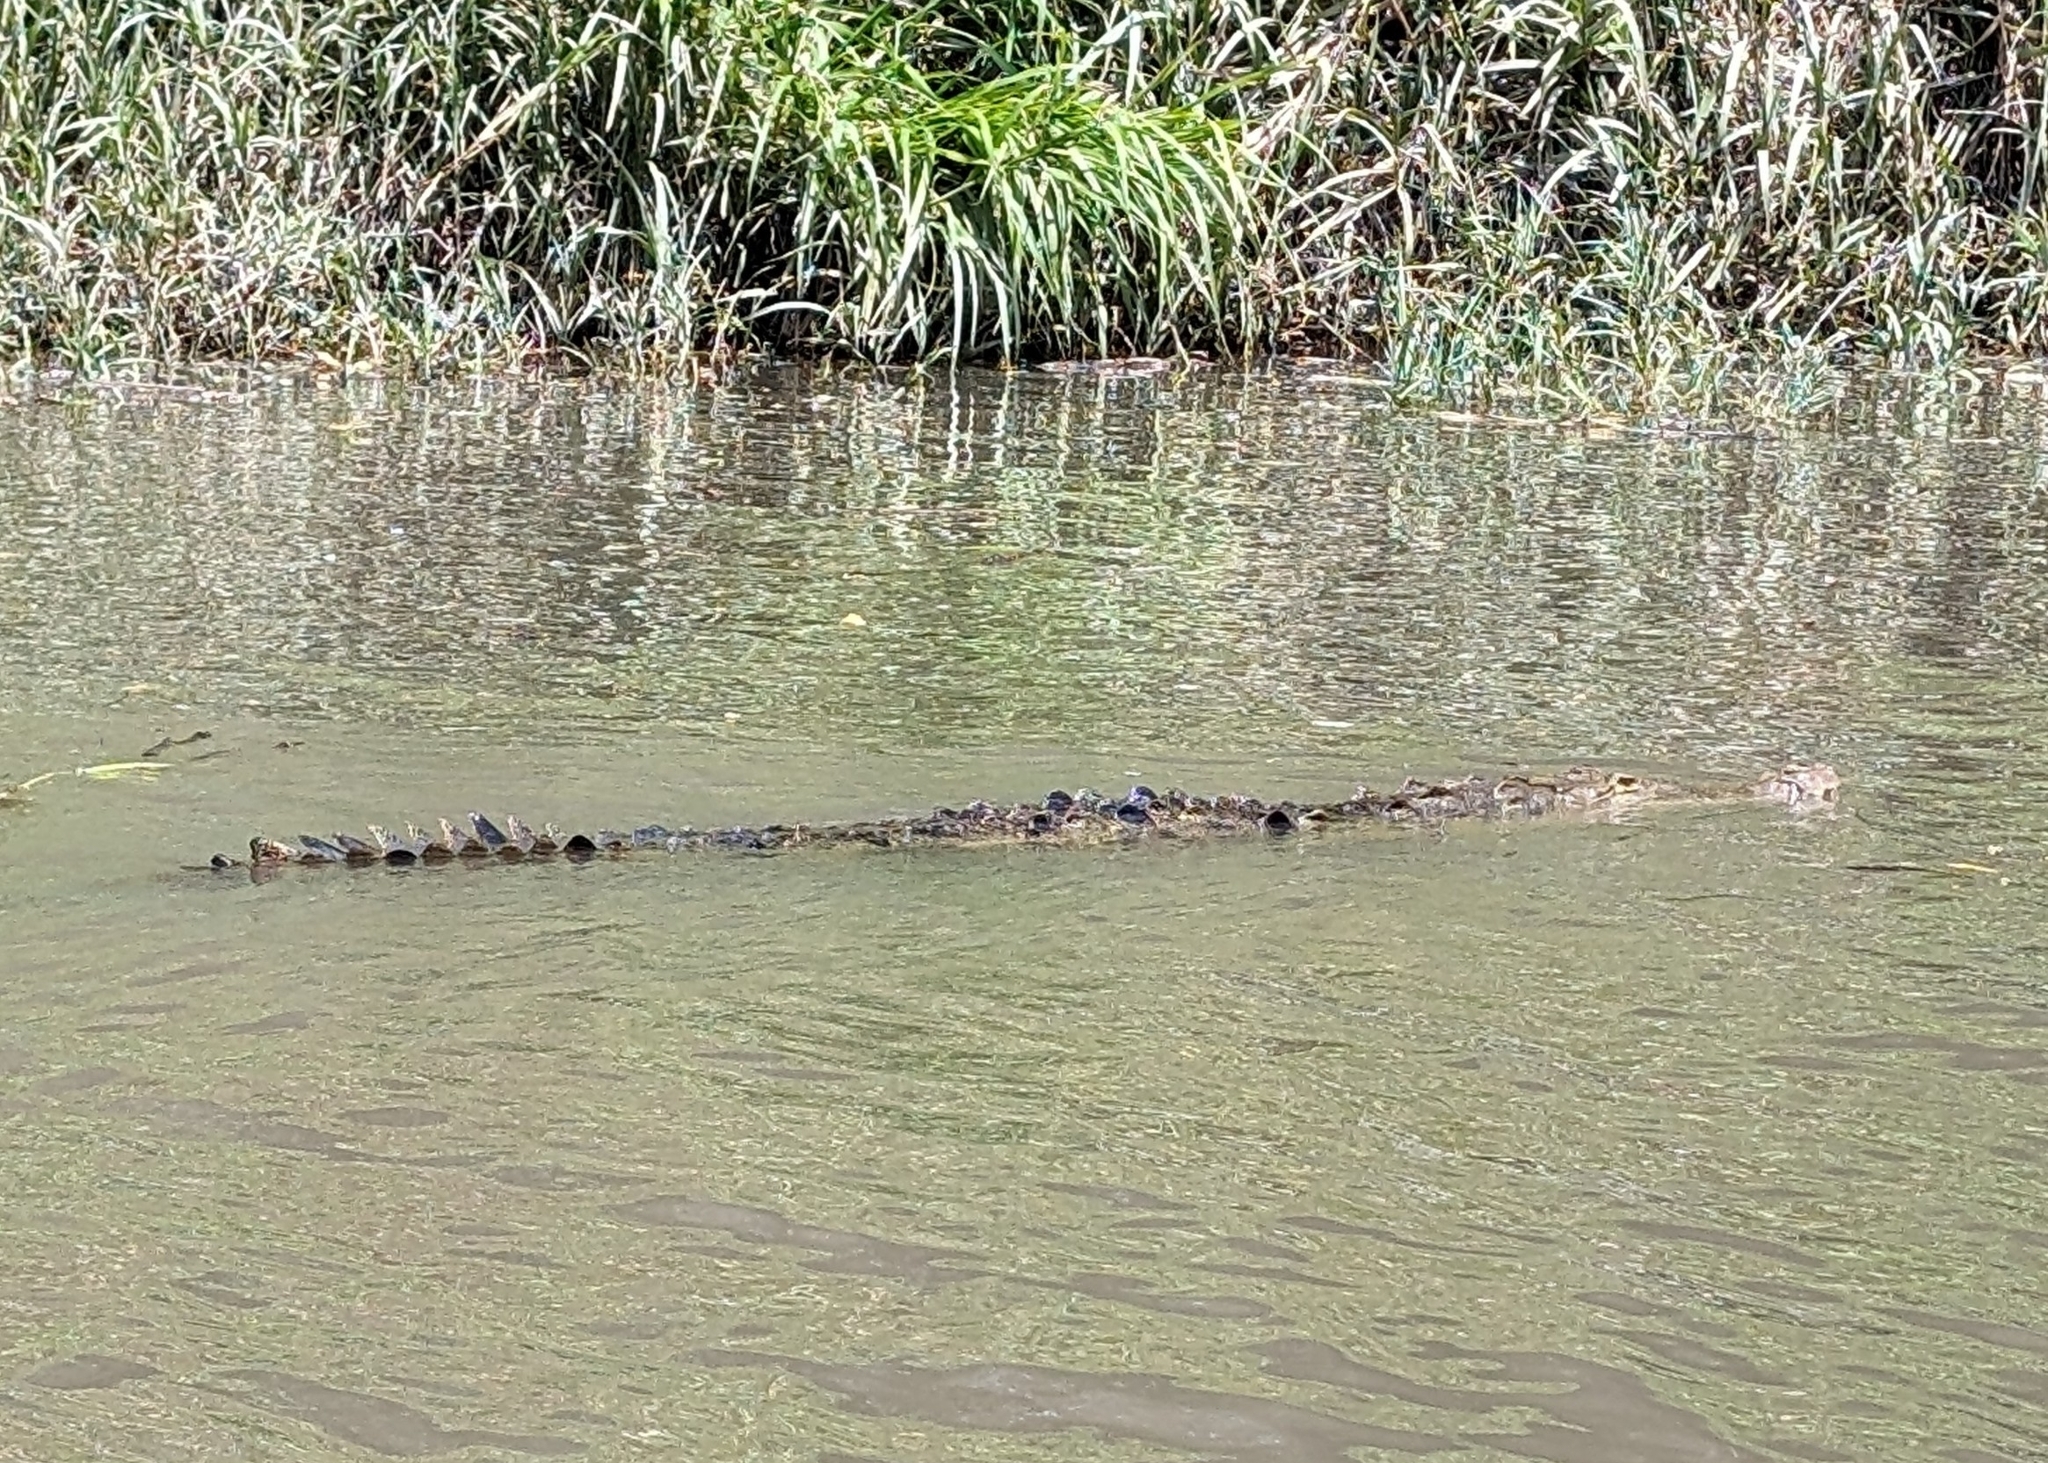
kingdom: Animalia
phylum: Chordata
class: Crocodylia
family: Crocodylidae
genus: Crocodylus
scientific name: Crocodylus acutus
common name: American crocodile
